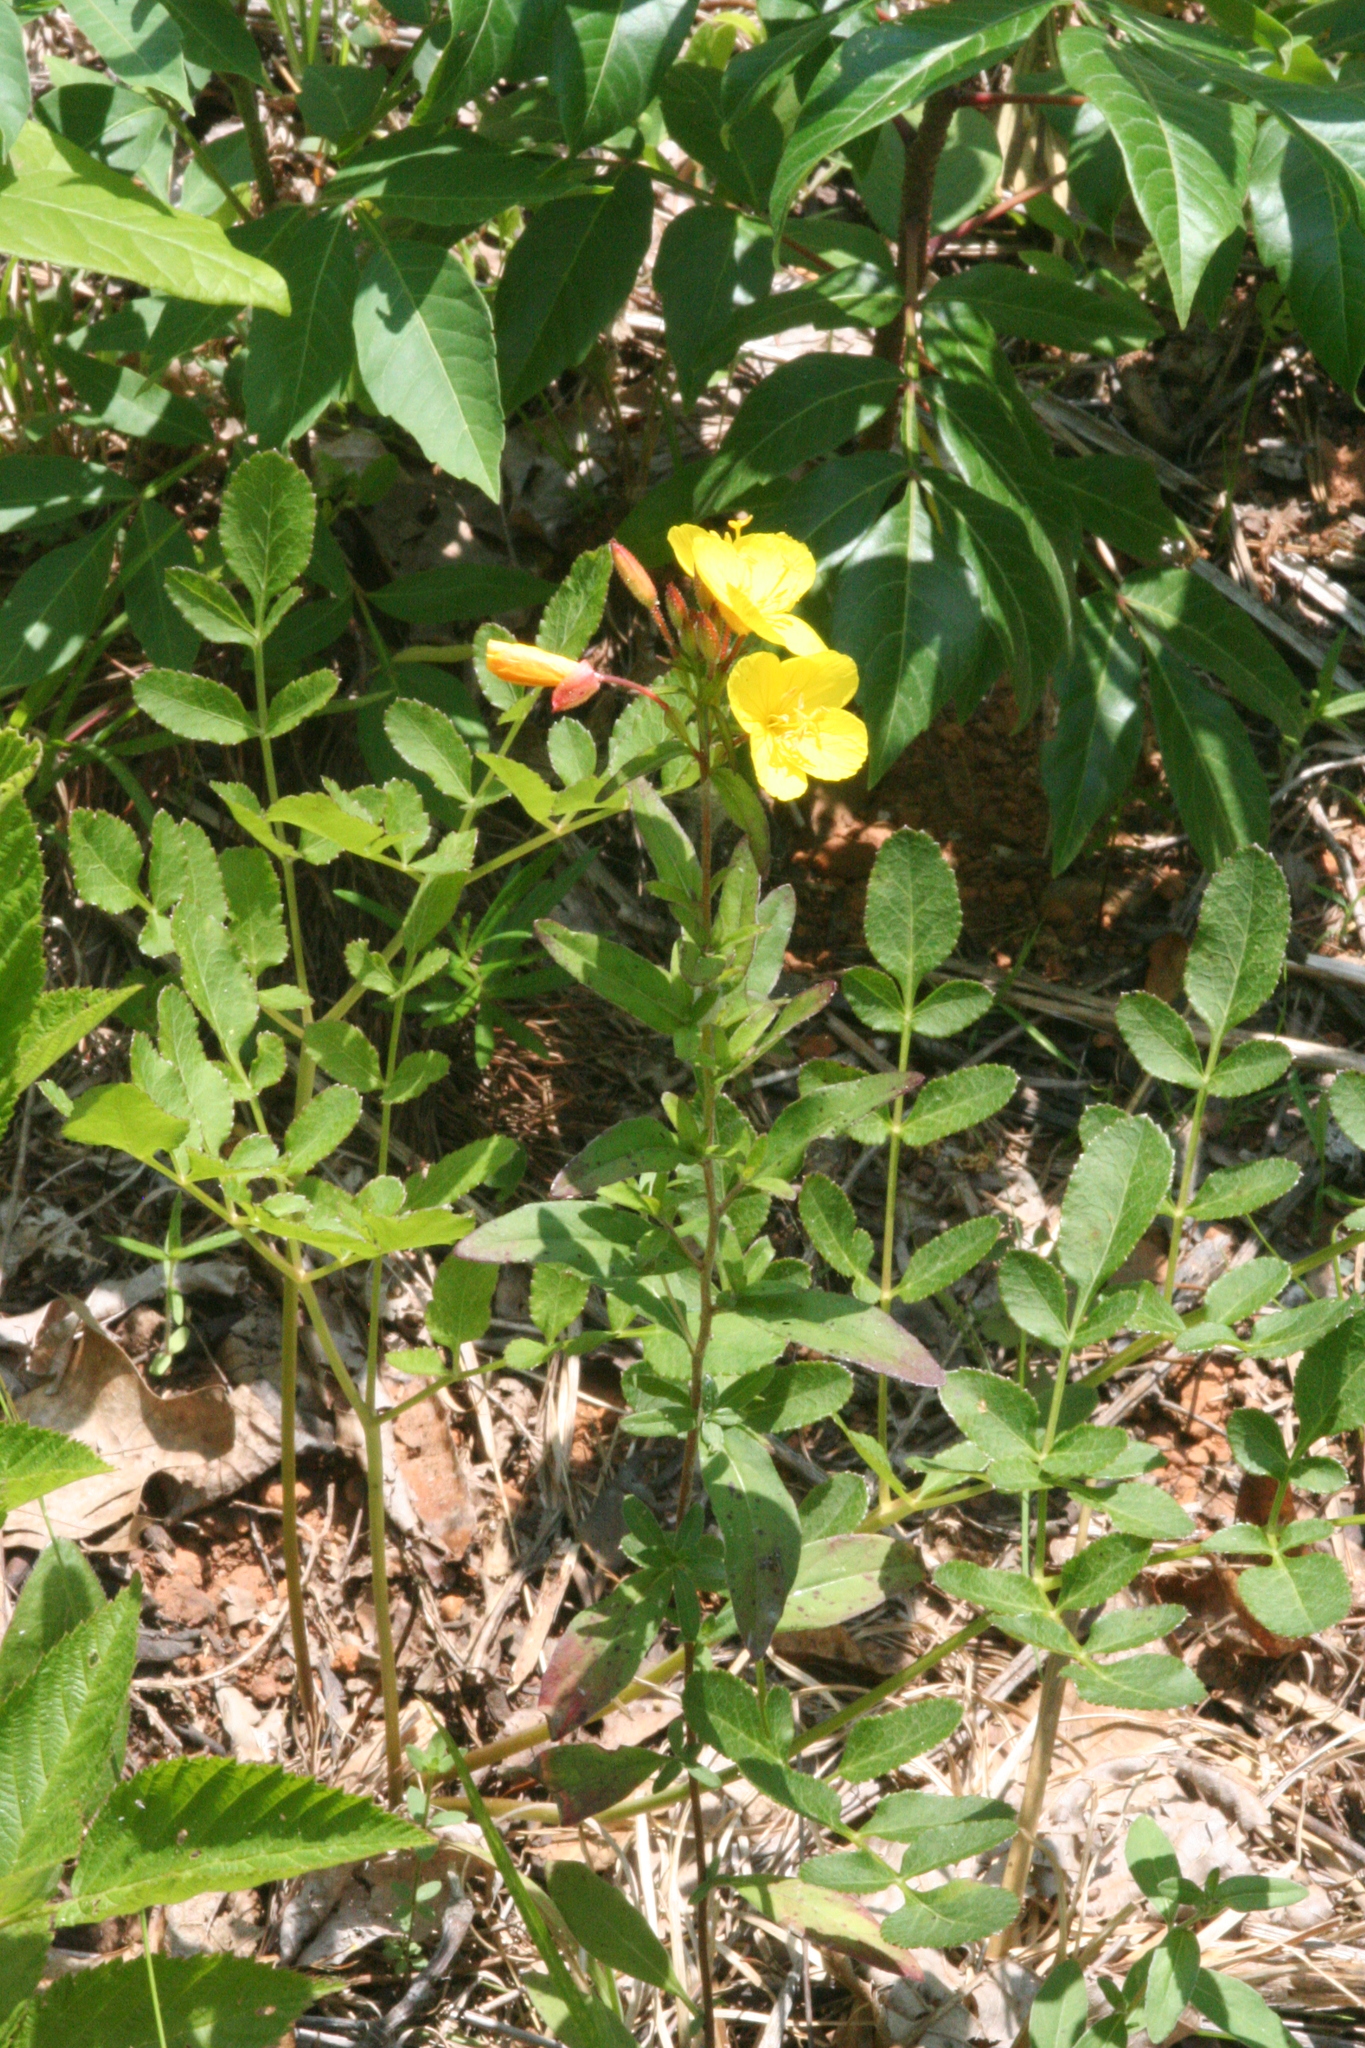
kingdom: Plantae
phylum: Tracheophyta
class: Magnoliopsida
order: Myrtales
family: Onagraceae
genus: Oenothera
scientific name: Oenothera fruticosa
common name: Southern sundrops
